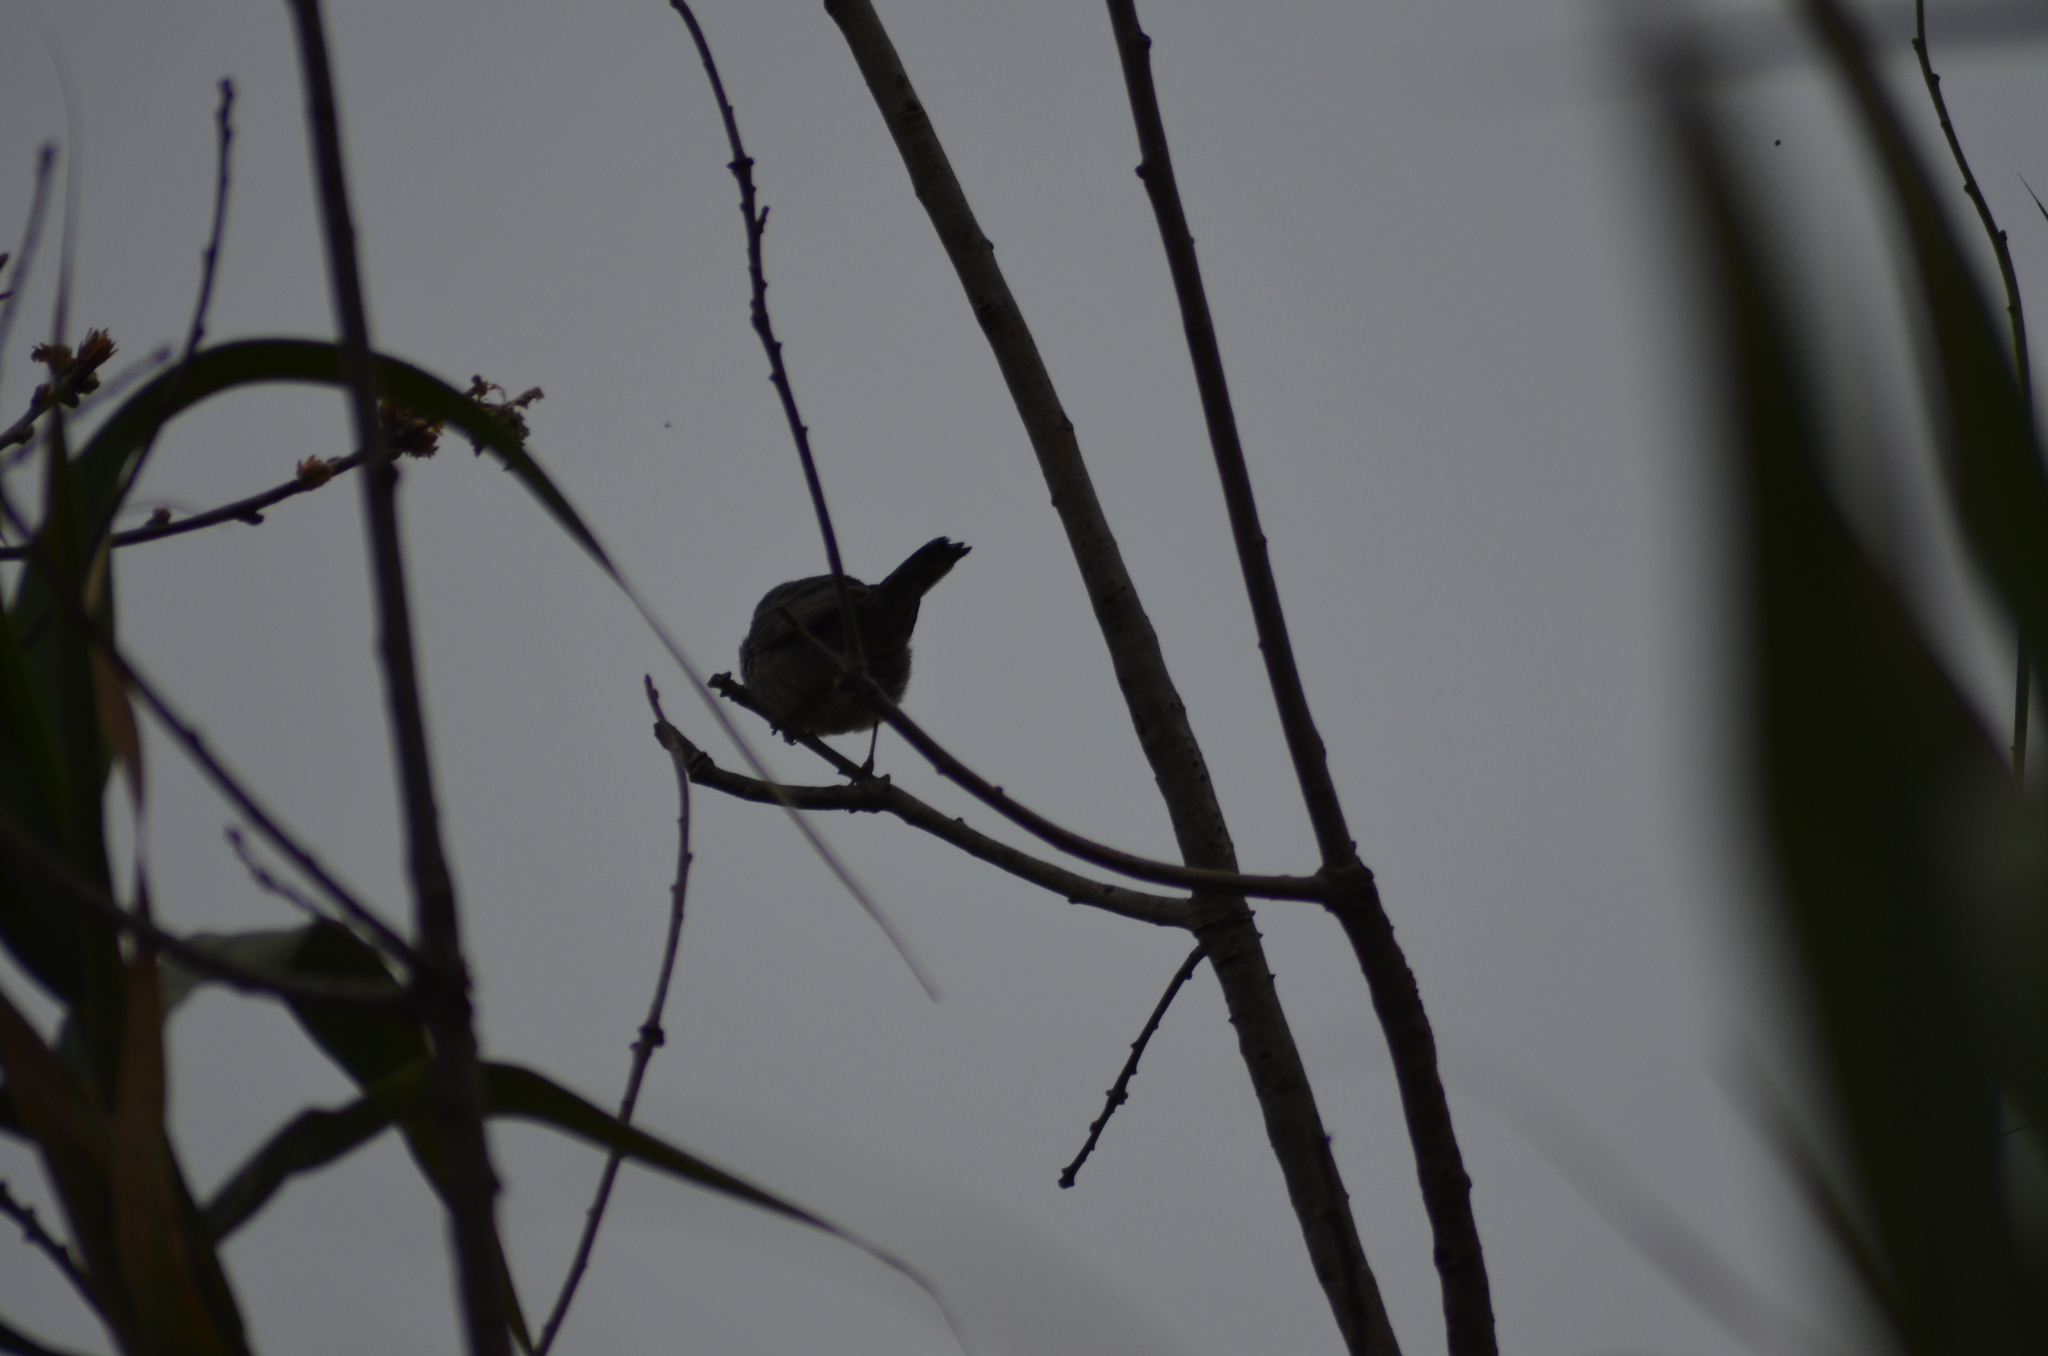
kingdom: Animalia
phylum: Chordata
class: Aves
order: Passeriformes
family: Sylviidae
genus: Curruca
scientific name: Curruca melanocephala
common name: Sardinian warbler
